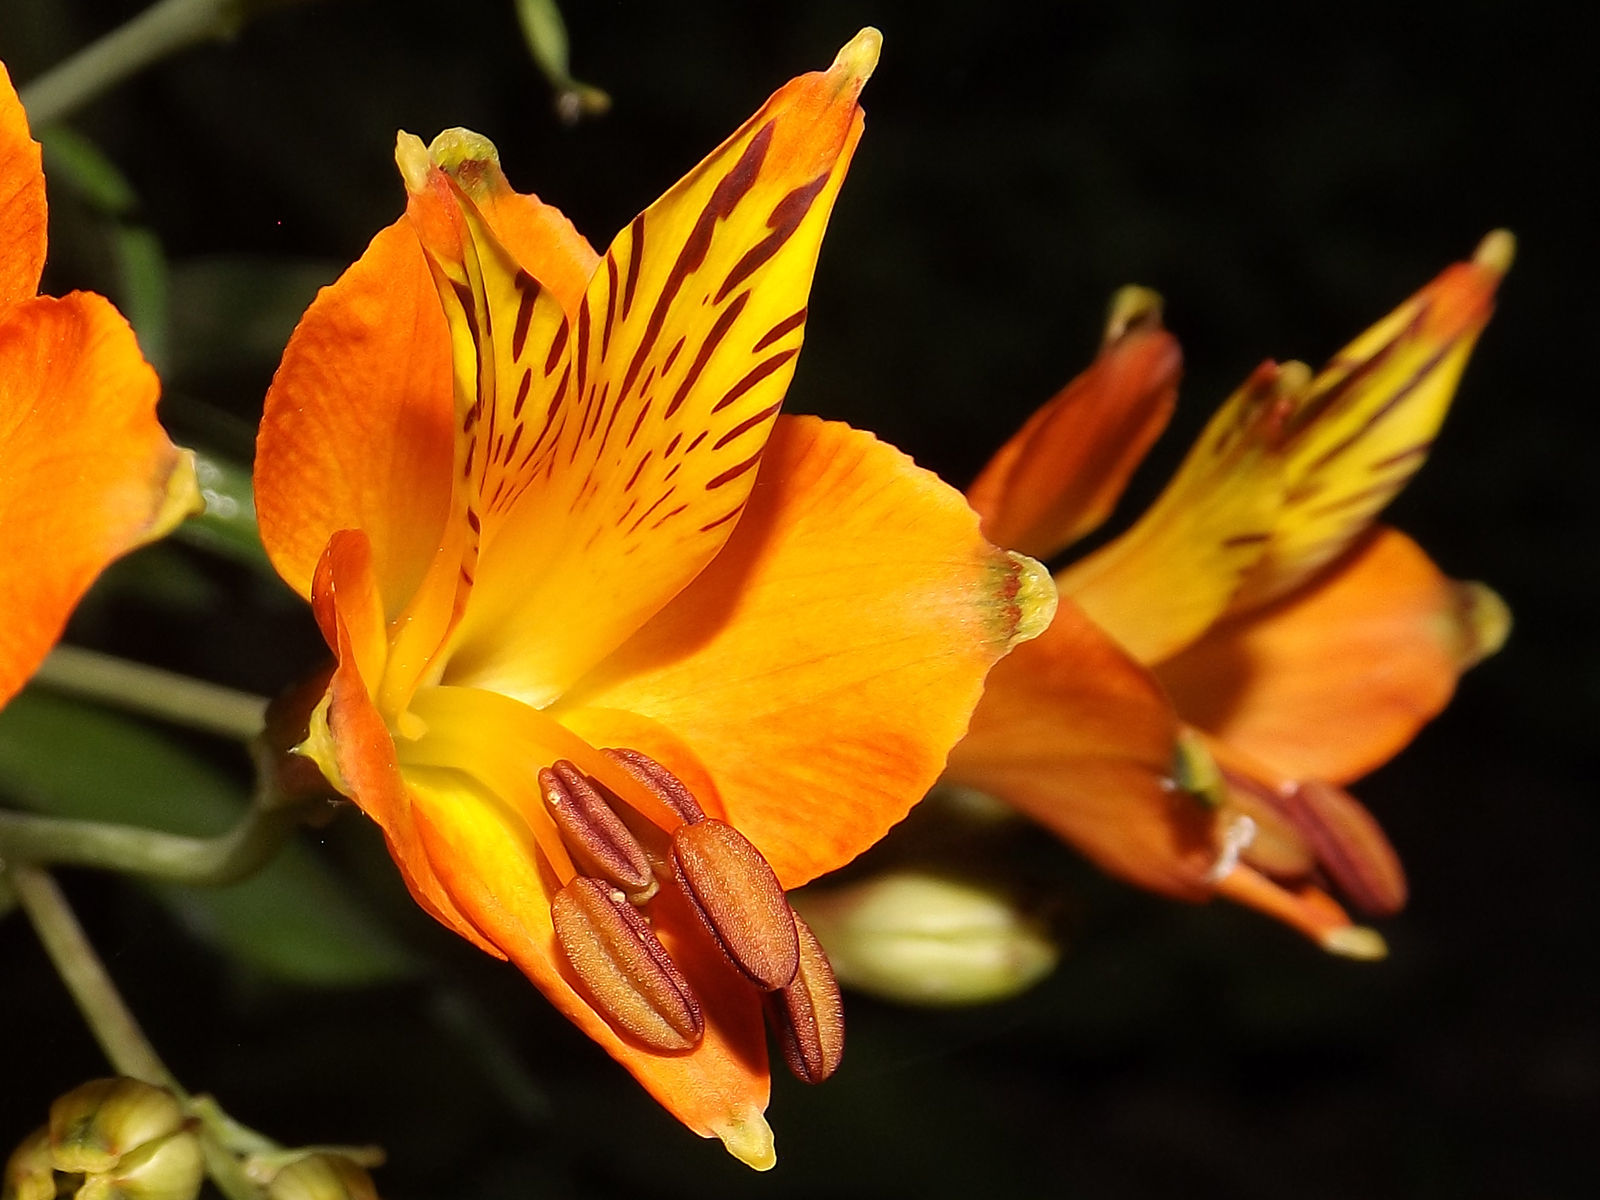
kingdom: Plantae
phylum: Tracheophyta
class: Liliopsida
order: Liliales
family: Alstroemeriaceae
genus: Alstroemeria
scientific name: Alstroemeria ligtu
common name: St. martin's-flower
